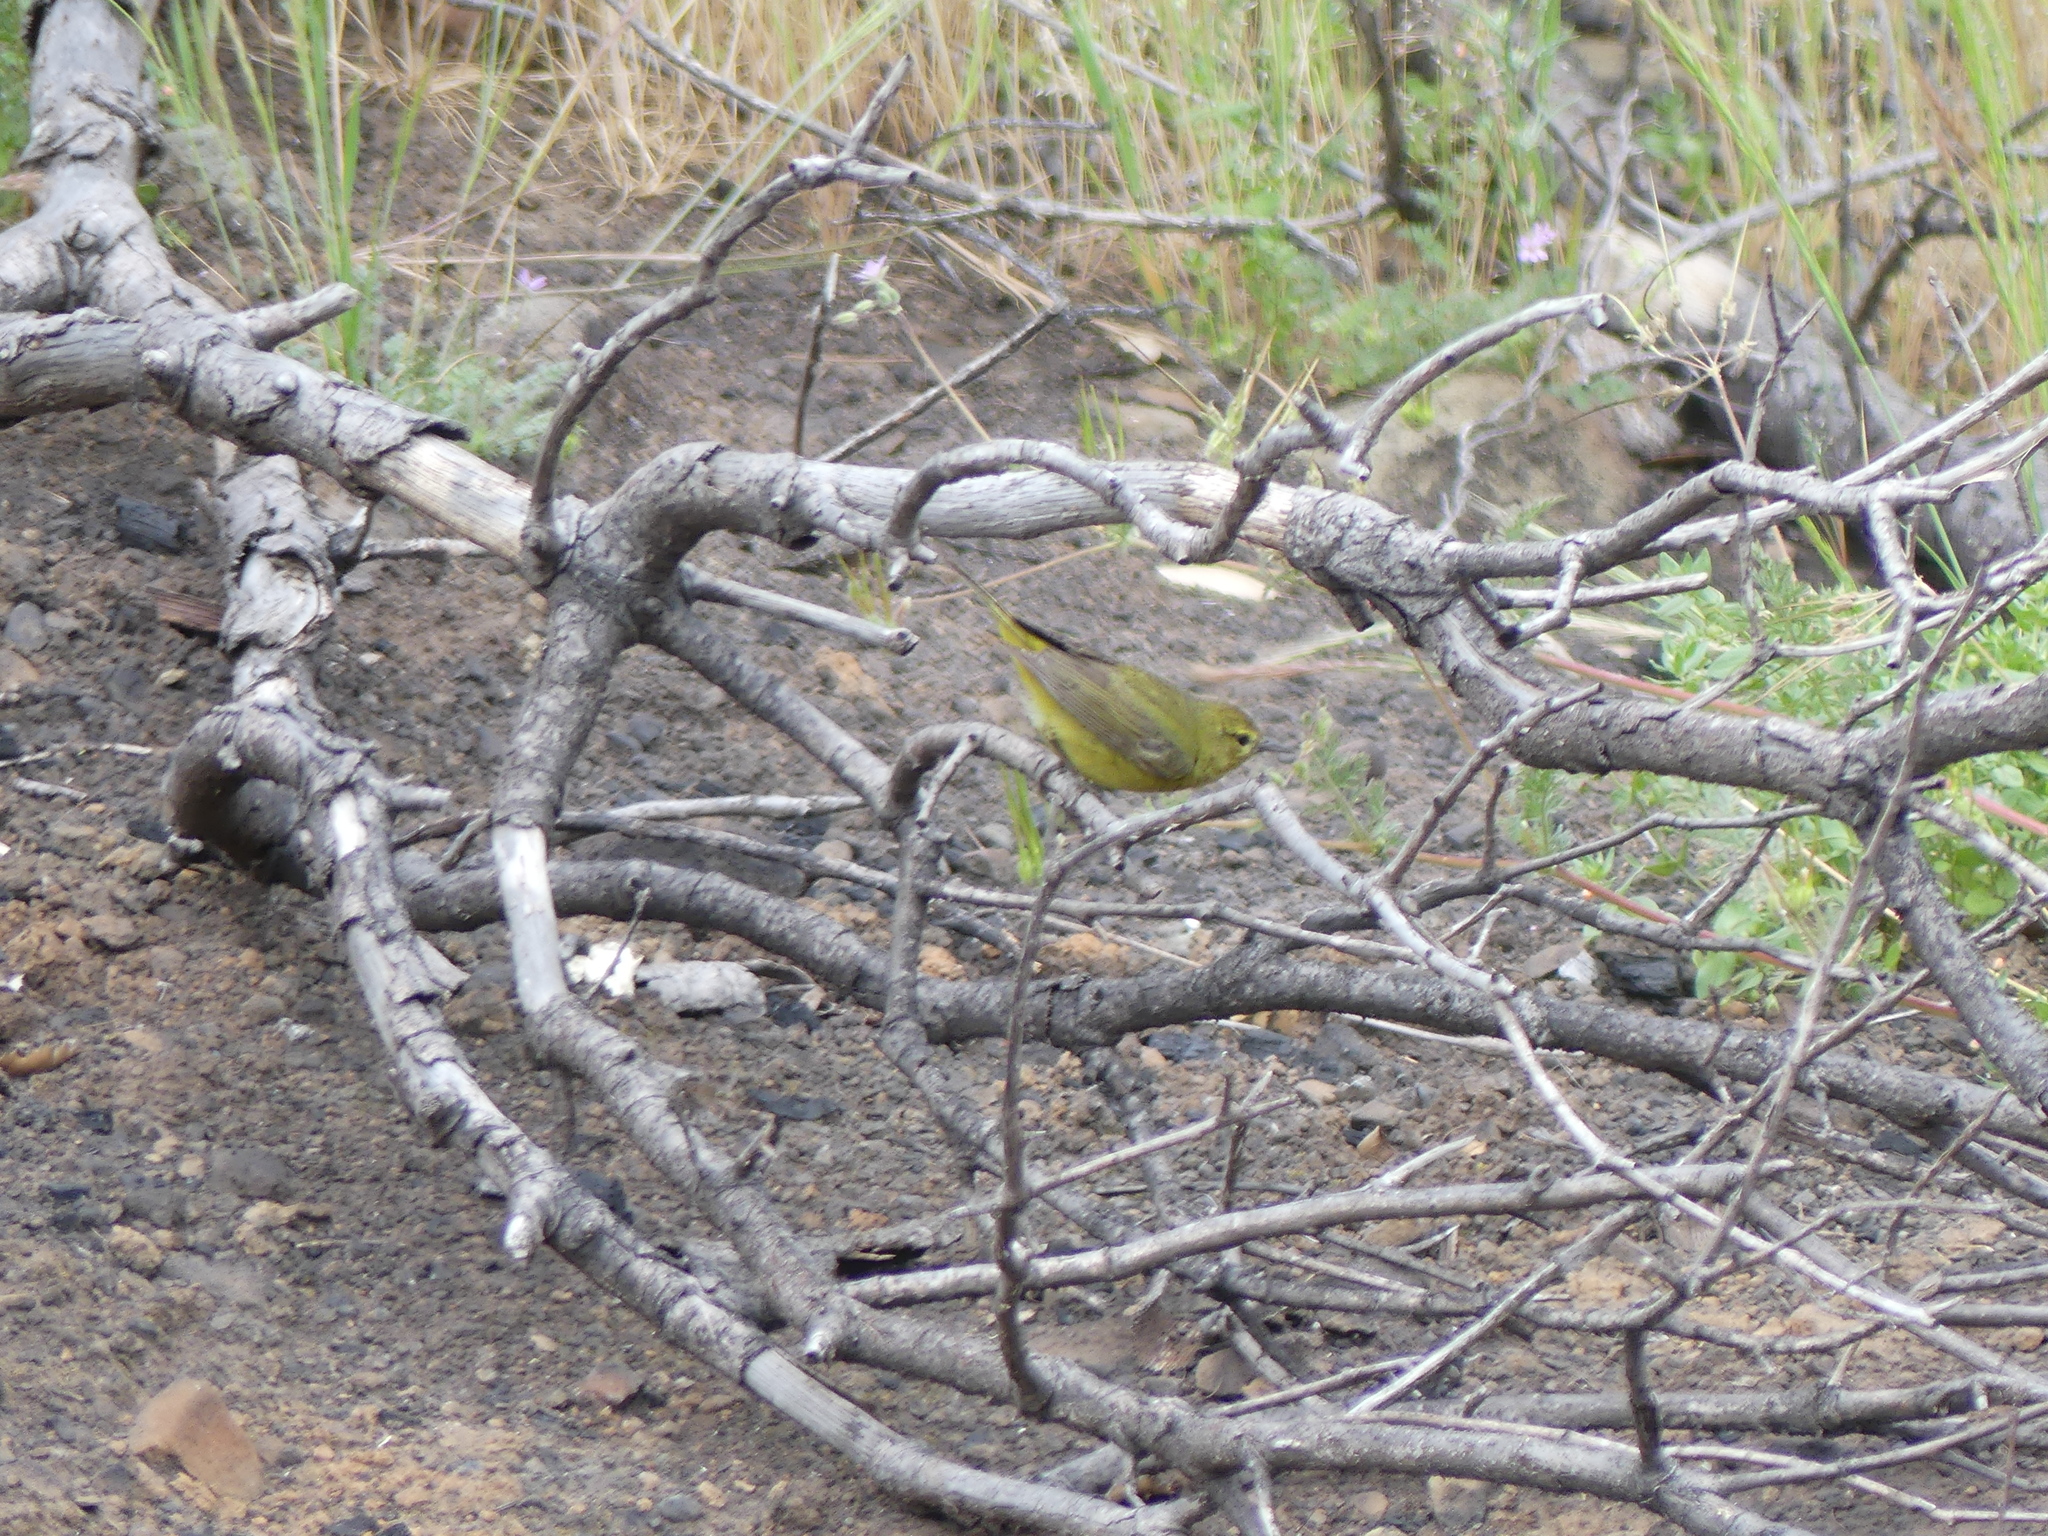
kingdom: Animalia
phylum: Chordata
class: Aves
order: Passeriformes
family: Parulidae
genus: Leiothlypis
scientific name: Leiothlypis celata
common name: Orange-crowned warbler
